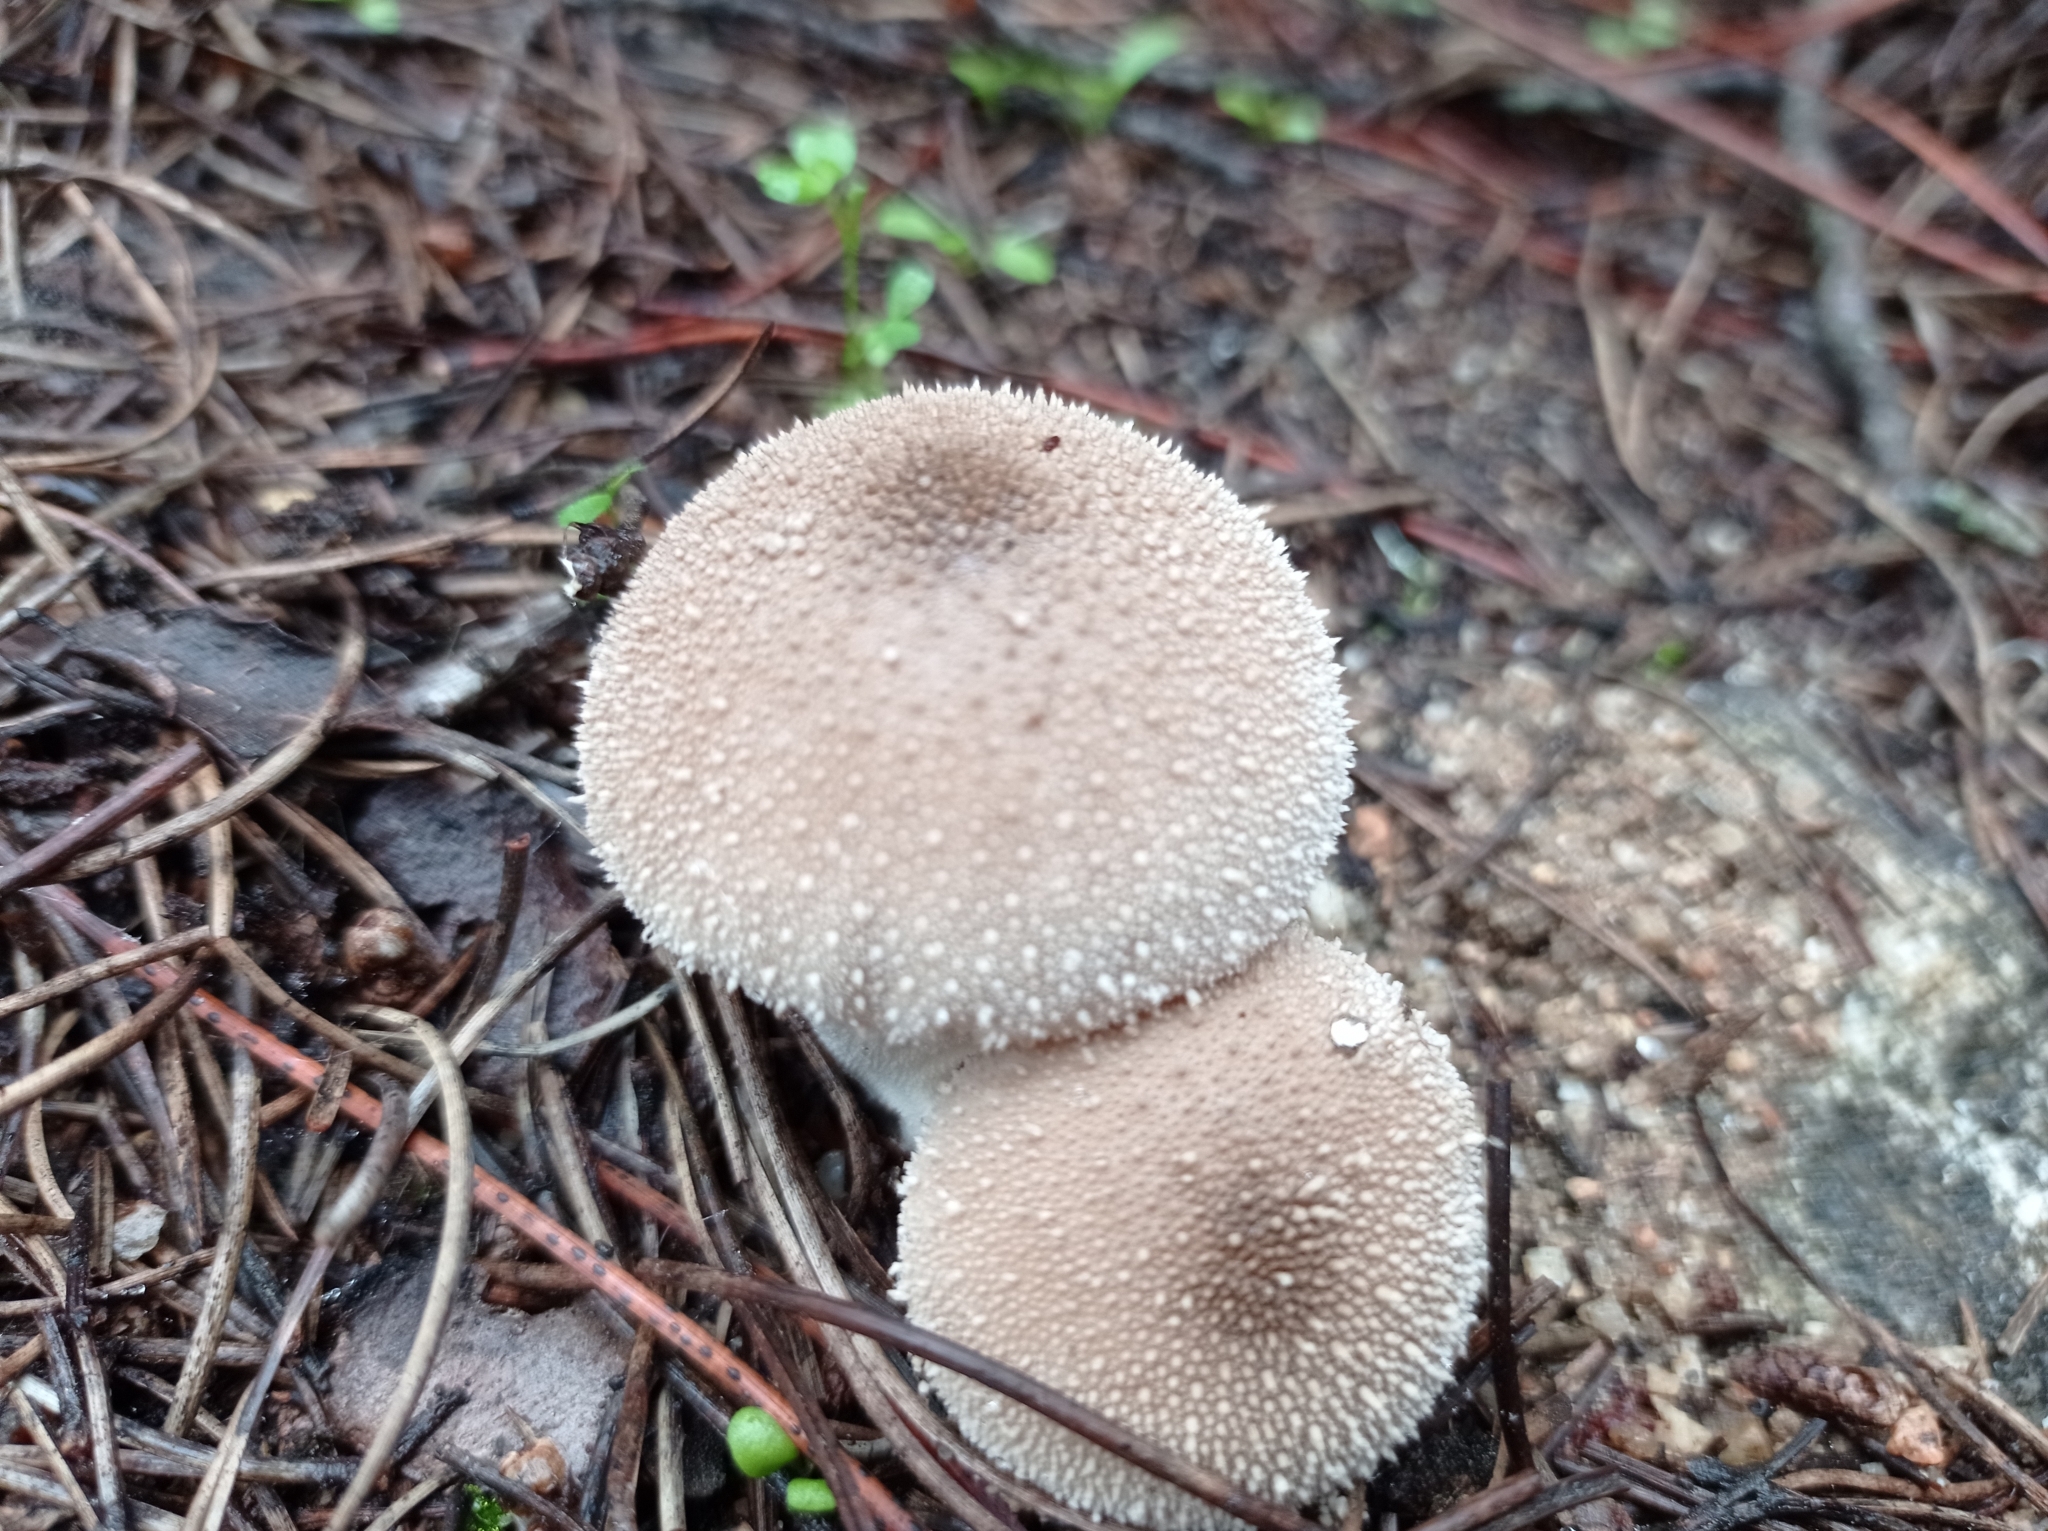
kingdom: Fungi
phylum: Basidiomycota
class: Agaricomycetes
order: Agaricales
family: Lycoperdaceae
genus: Lycoperdon
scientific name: Lycoperdon perlatum
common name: Common puffball
